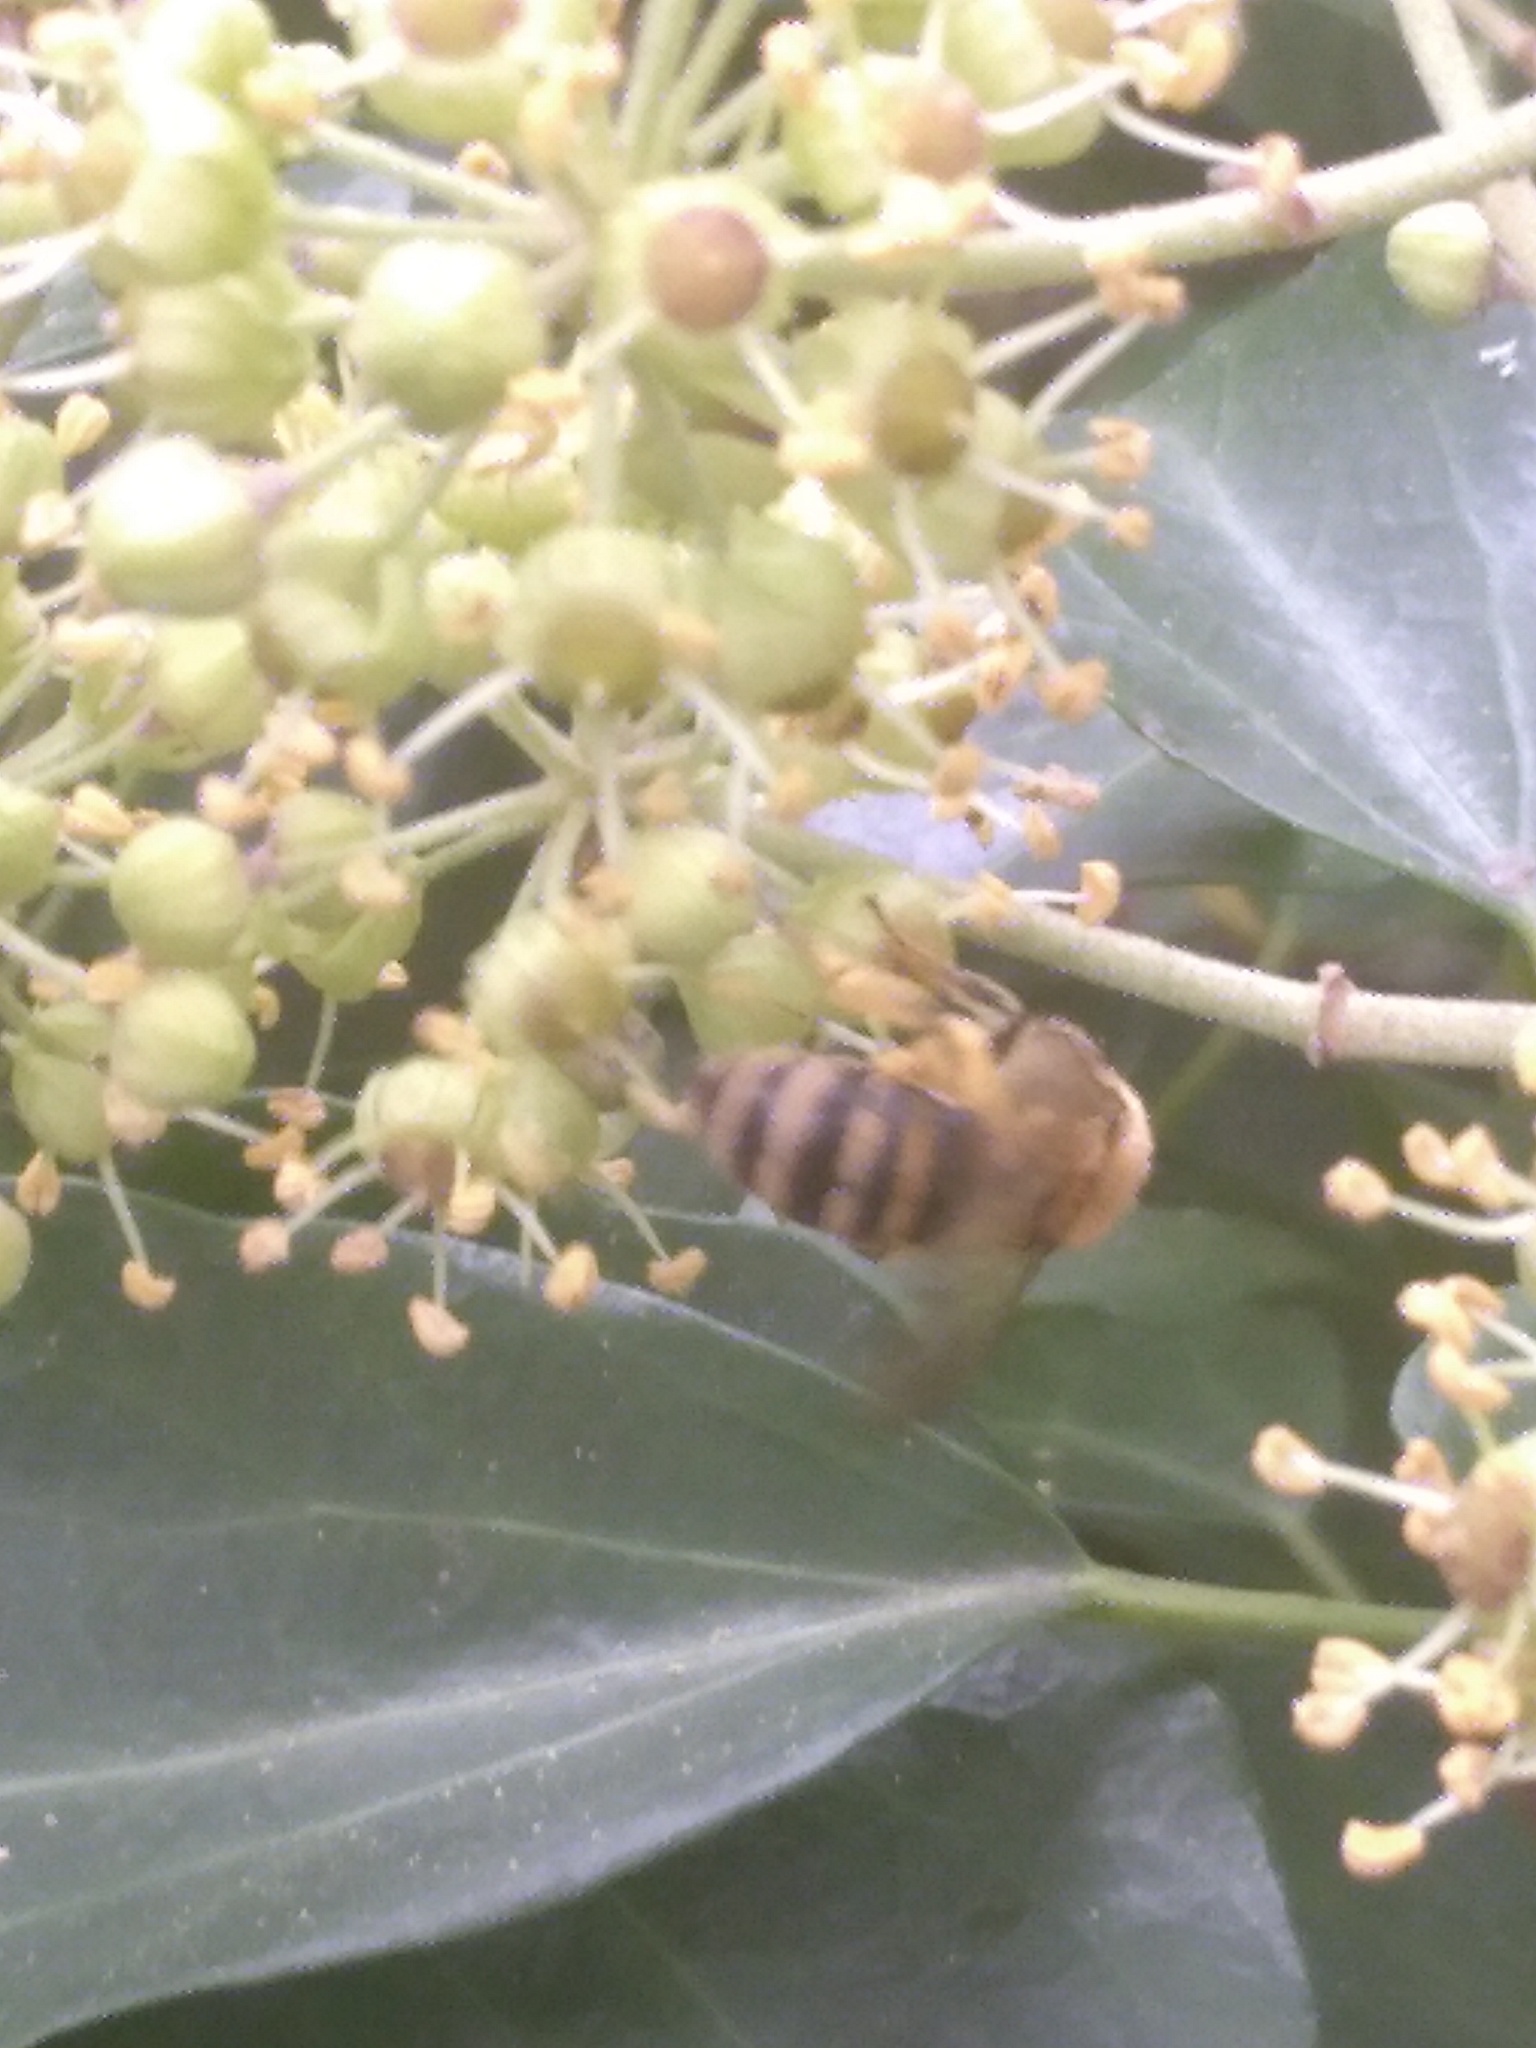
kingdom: Animalia
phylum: Arthropoda
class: Insecta
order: Hymenoptera
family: Colletidae
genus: Colletes
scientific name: Colletes hederae
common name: Ivy bee
